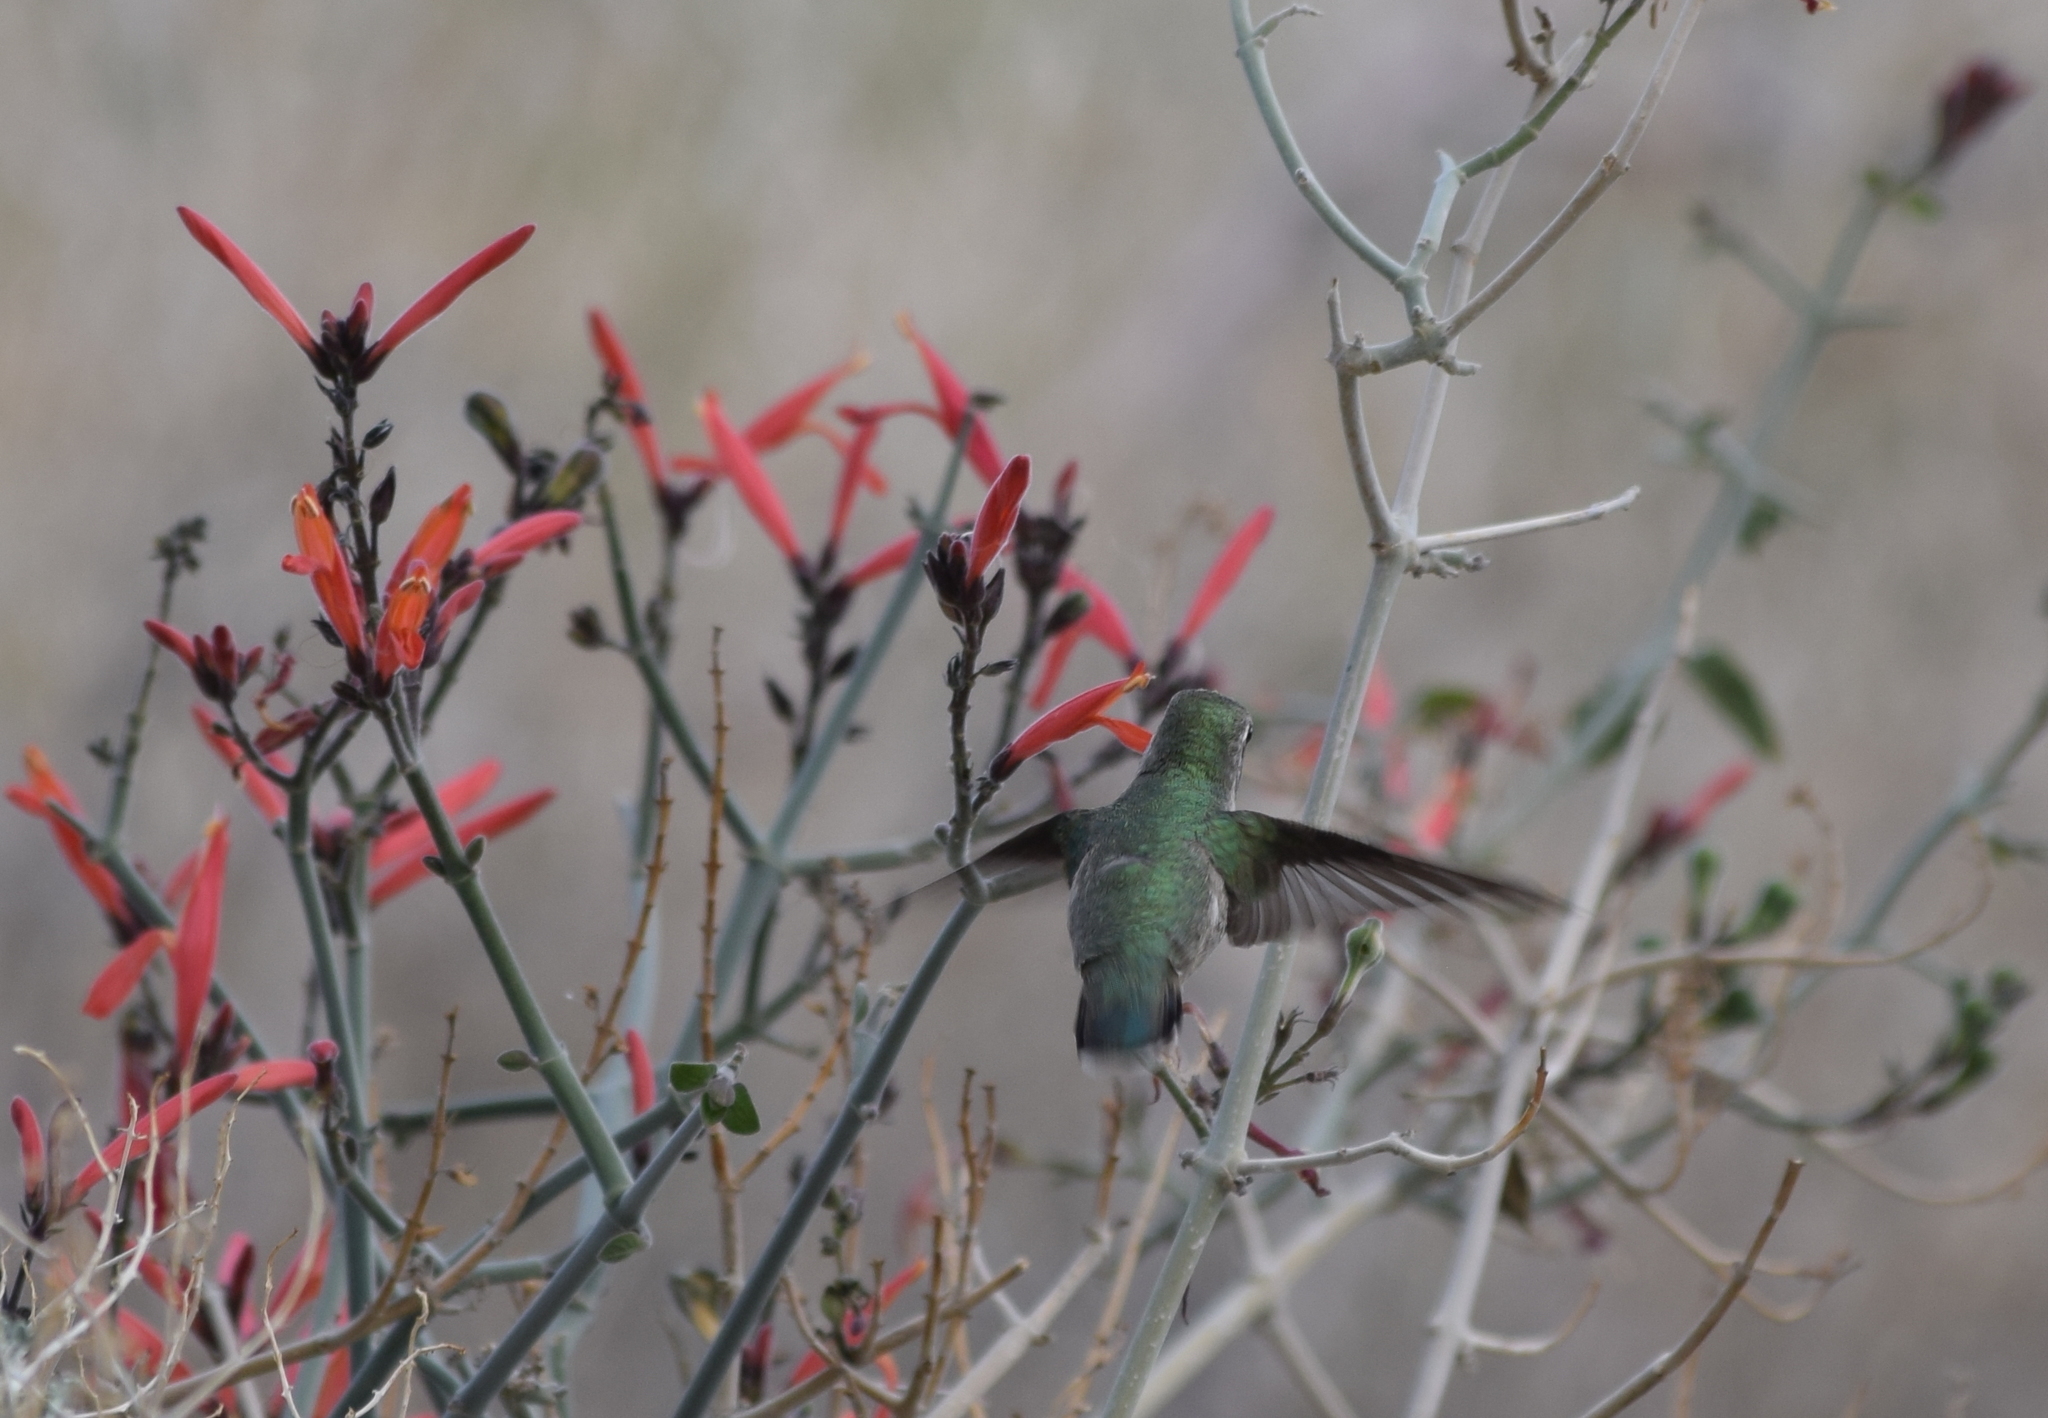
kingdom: Animalia
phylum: Chordata
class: Aves
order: Apodiformes
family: Trochilidae
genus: Calypte
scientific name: Calypte costae
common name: Costa's hummingbird
